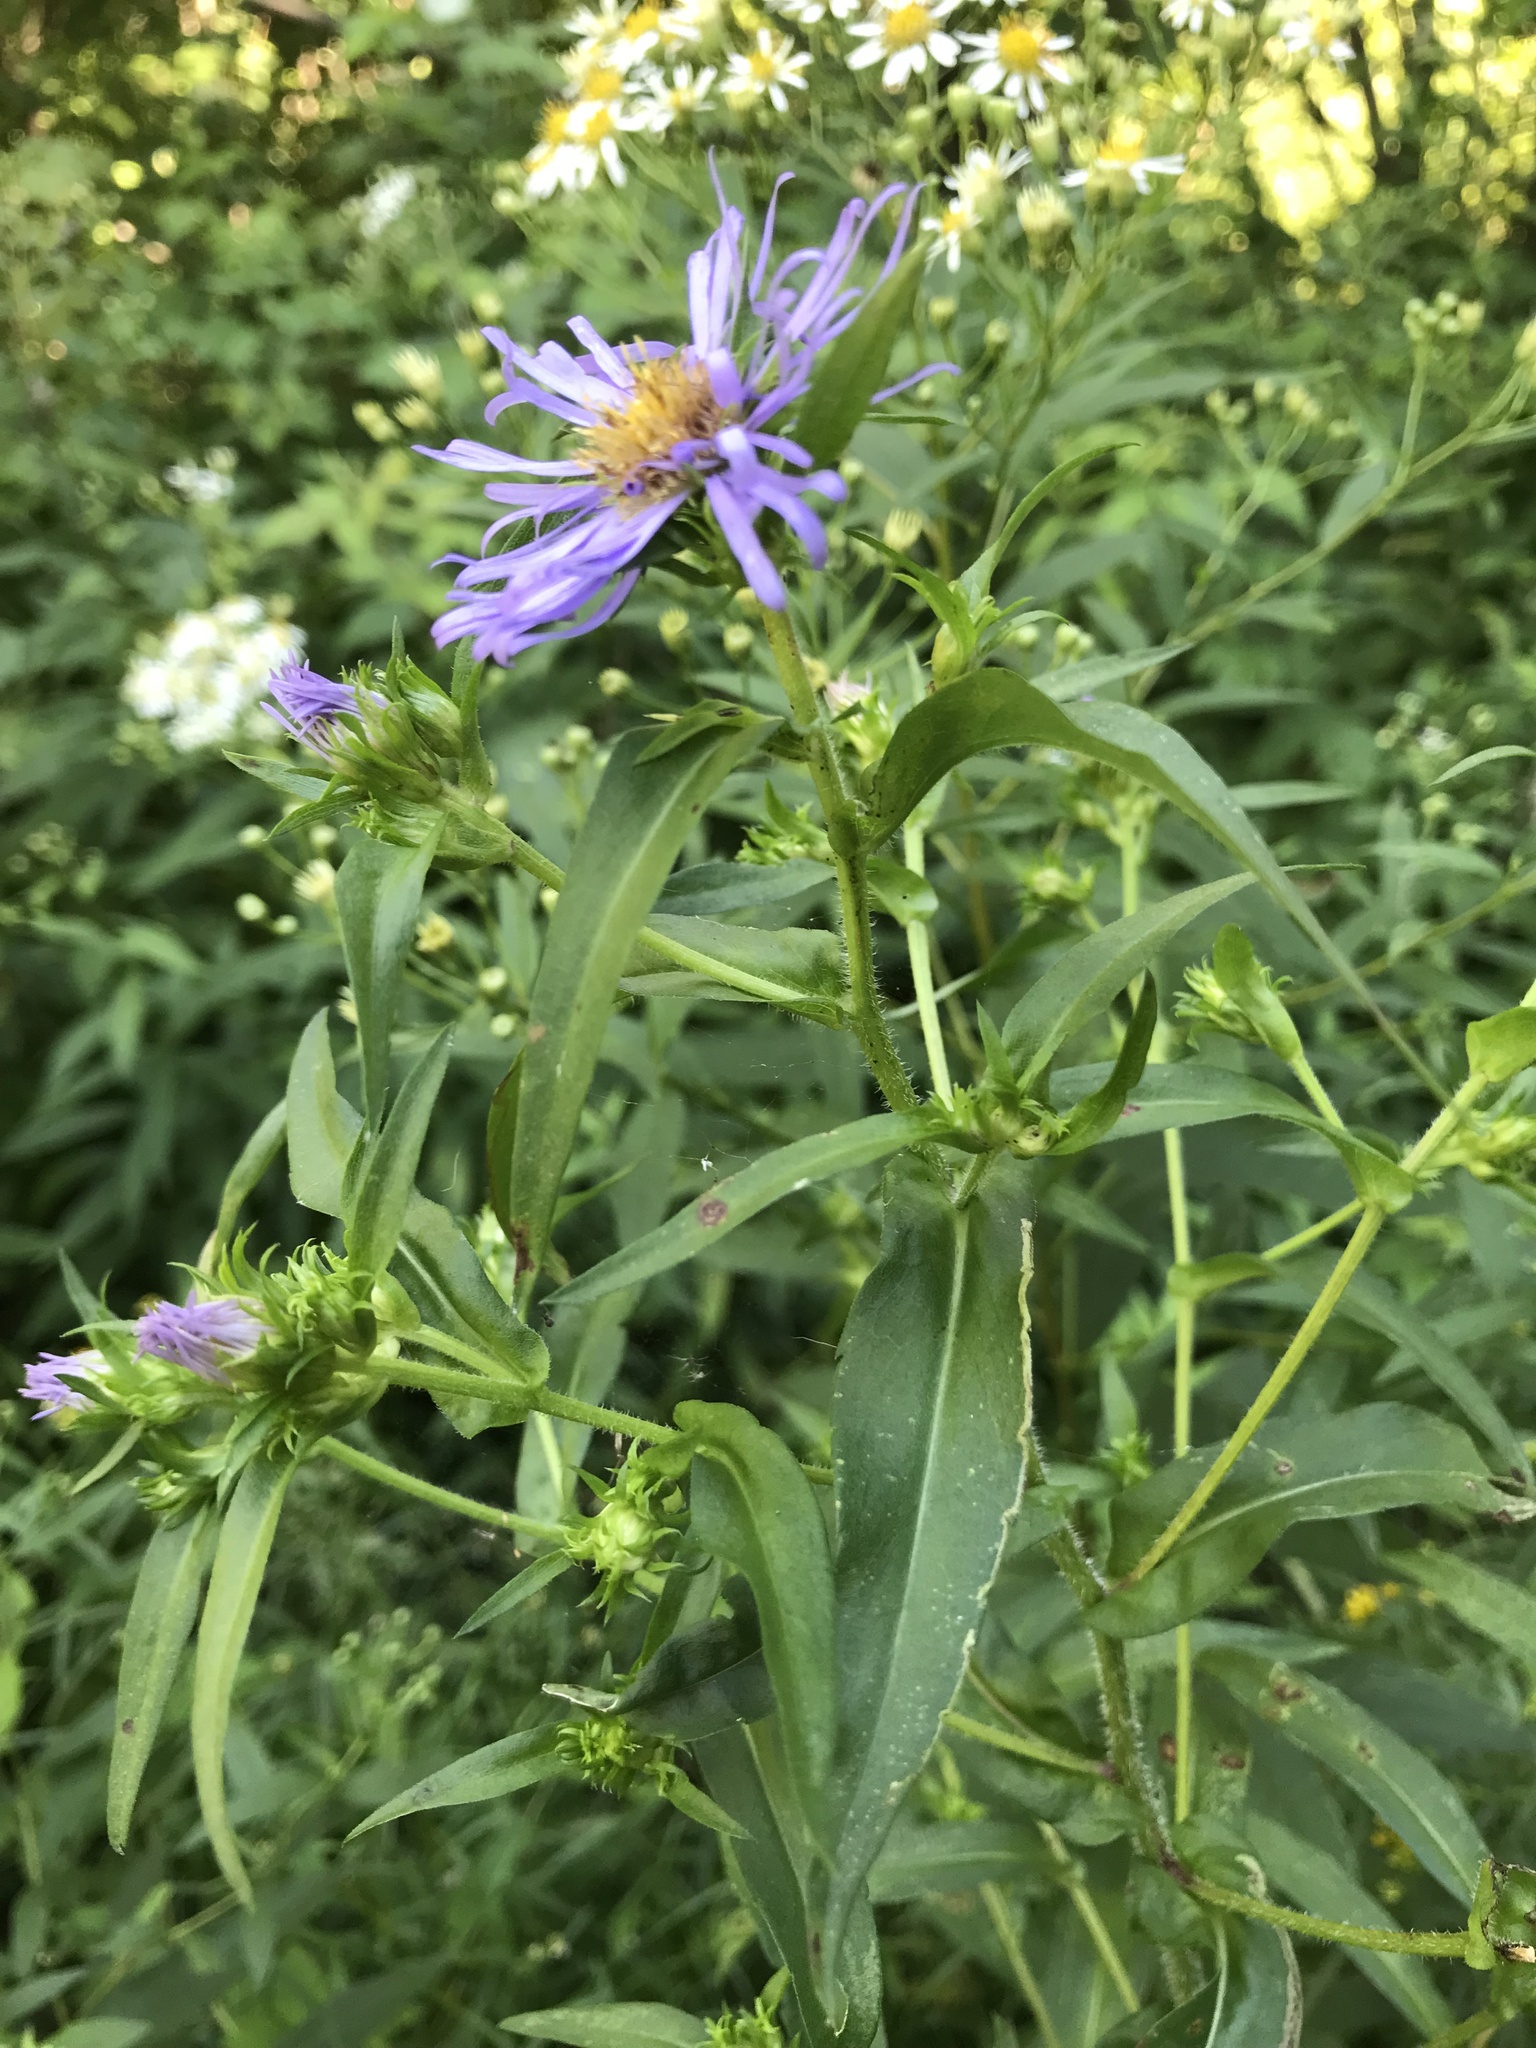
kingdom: Plantae
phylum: Tracheophyta
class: Magnoliopsida
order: Asterales
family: Asteraceae
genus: Symphyotrichum
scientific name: Symphyotrichum puniceum
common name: Bog aster
